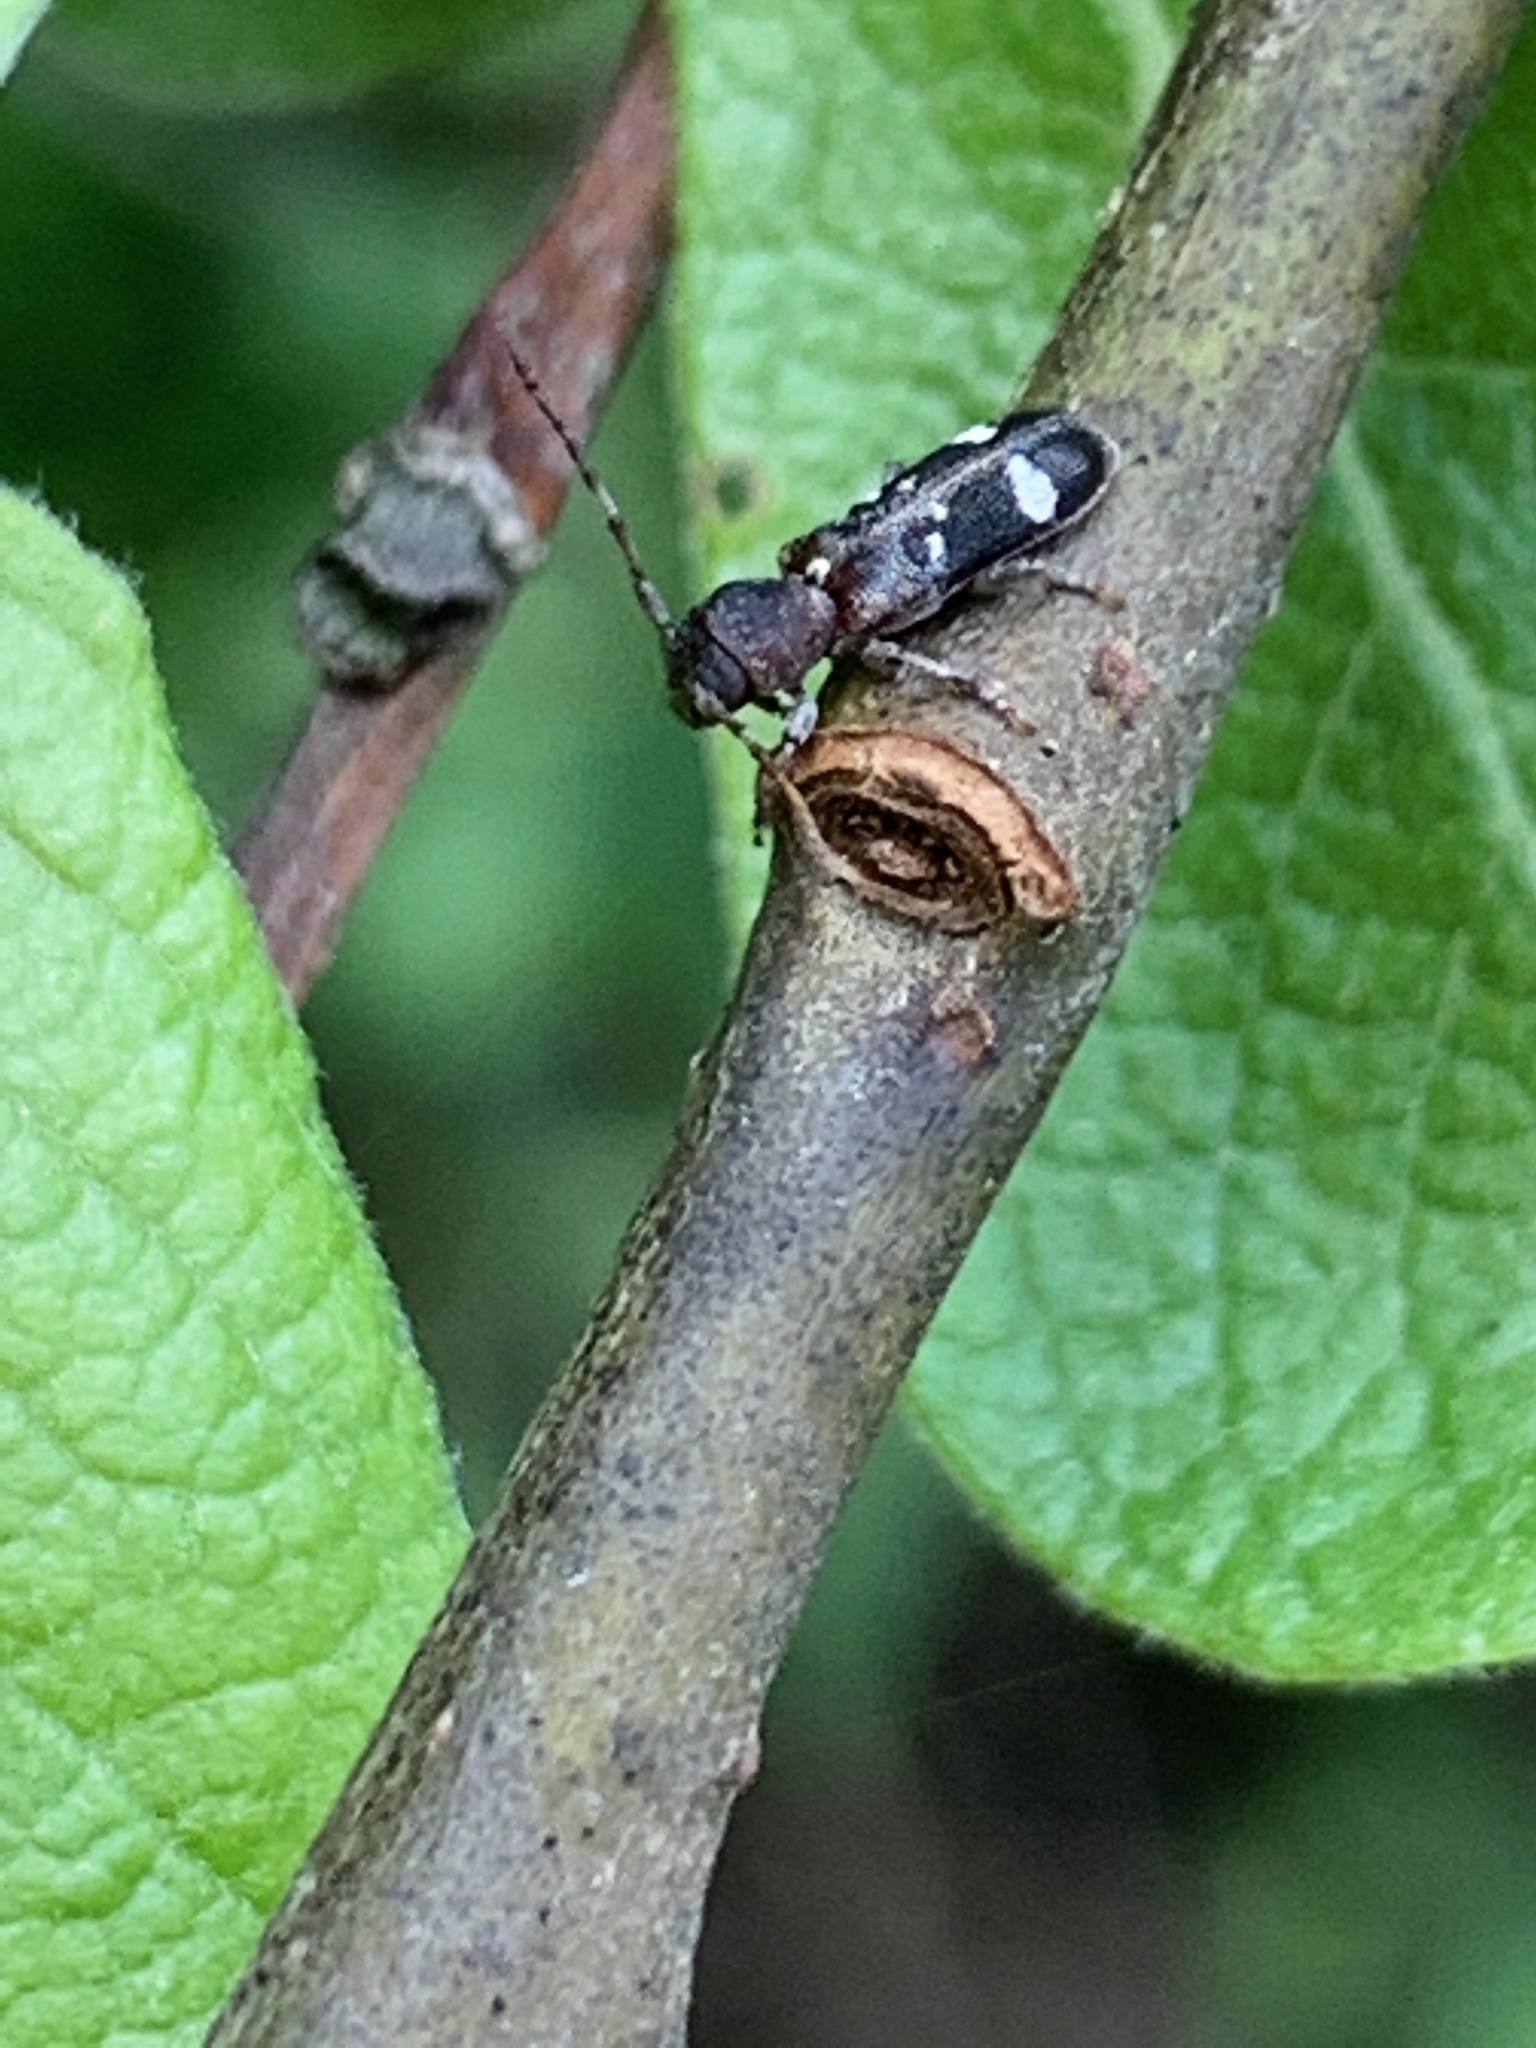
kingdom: Animalia
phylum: Arthropoda
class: Insecta
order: Coleoptera
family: Cerambycidae
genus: Psenocerus
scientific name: Psenocerus supernotatus
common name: Currant-tip borer
